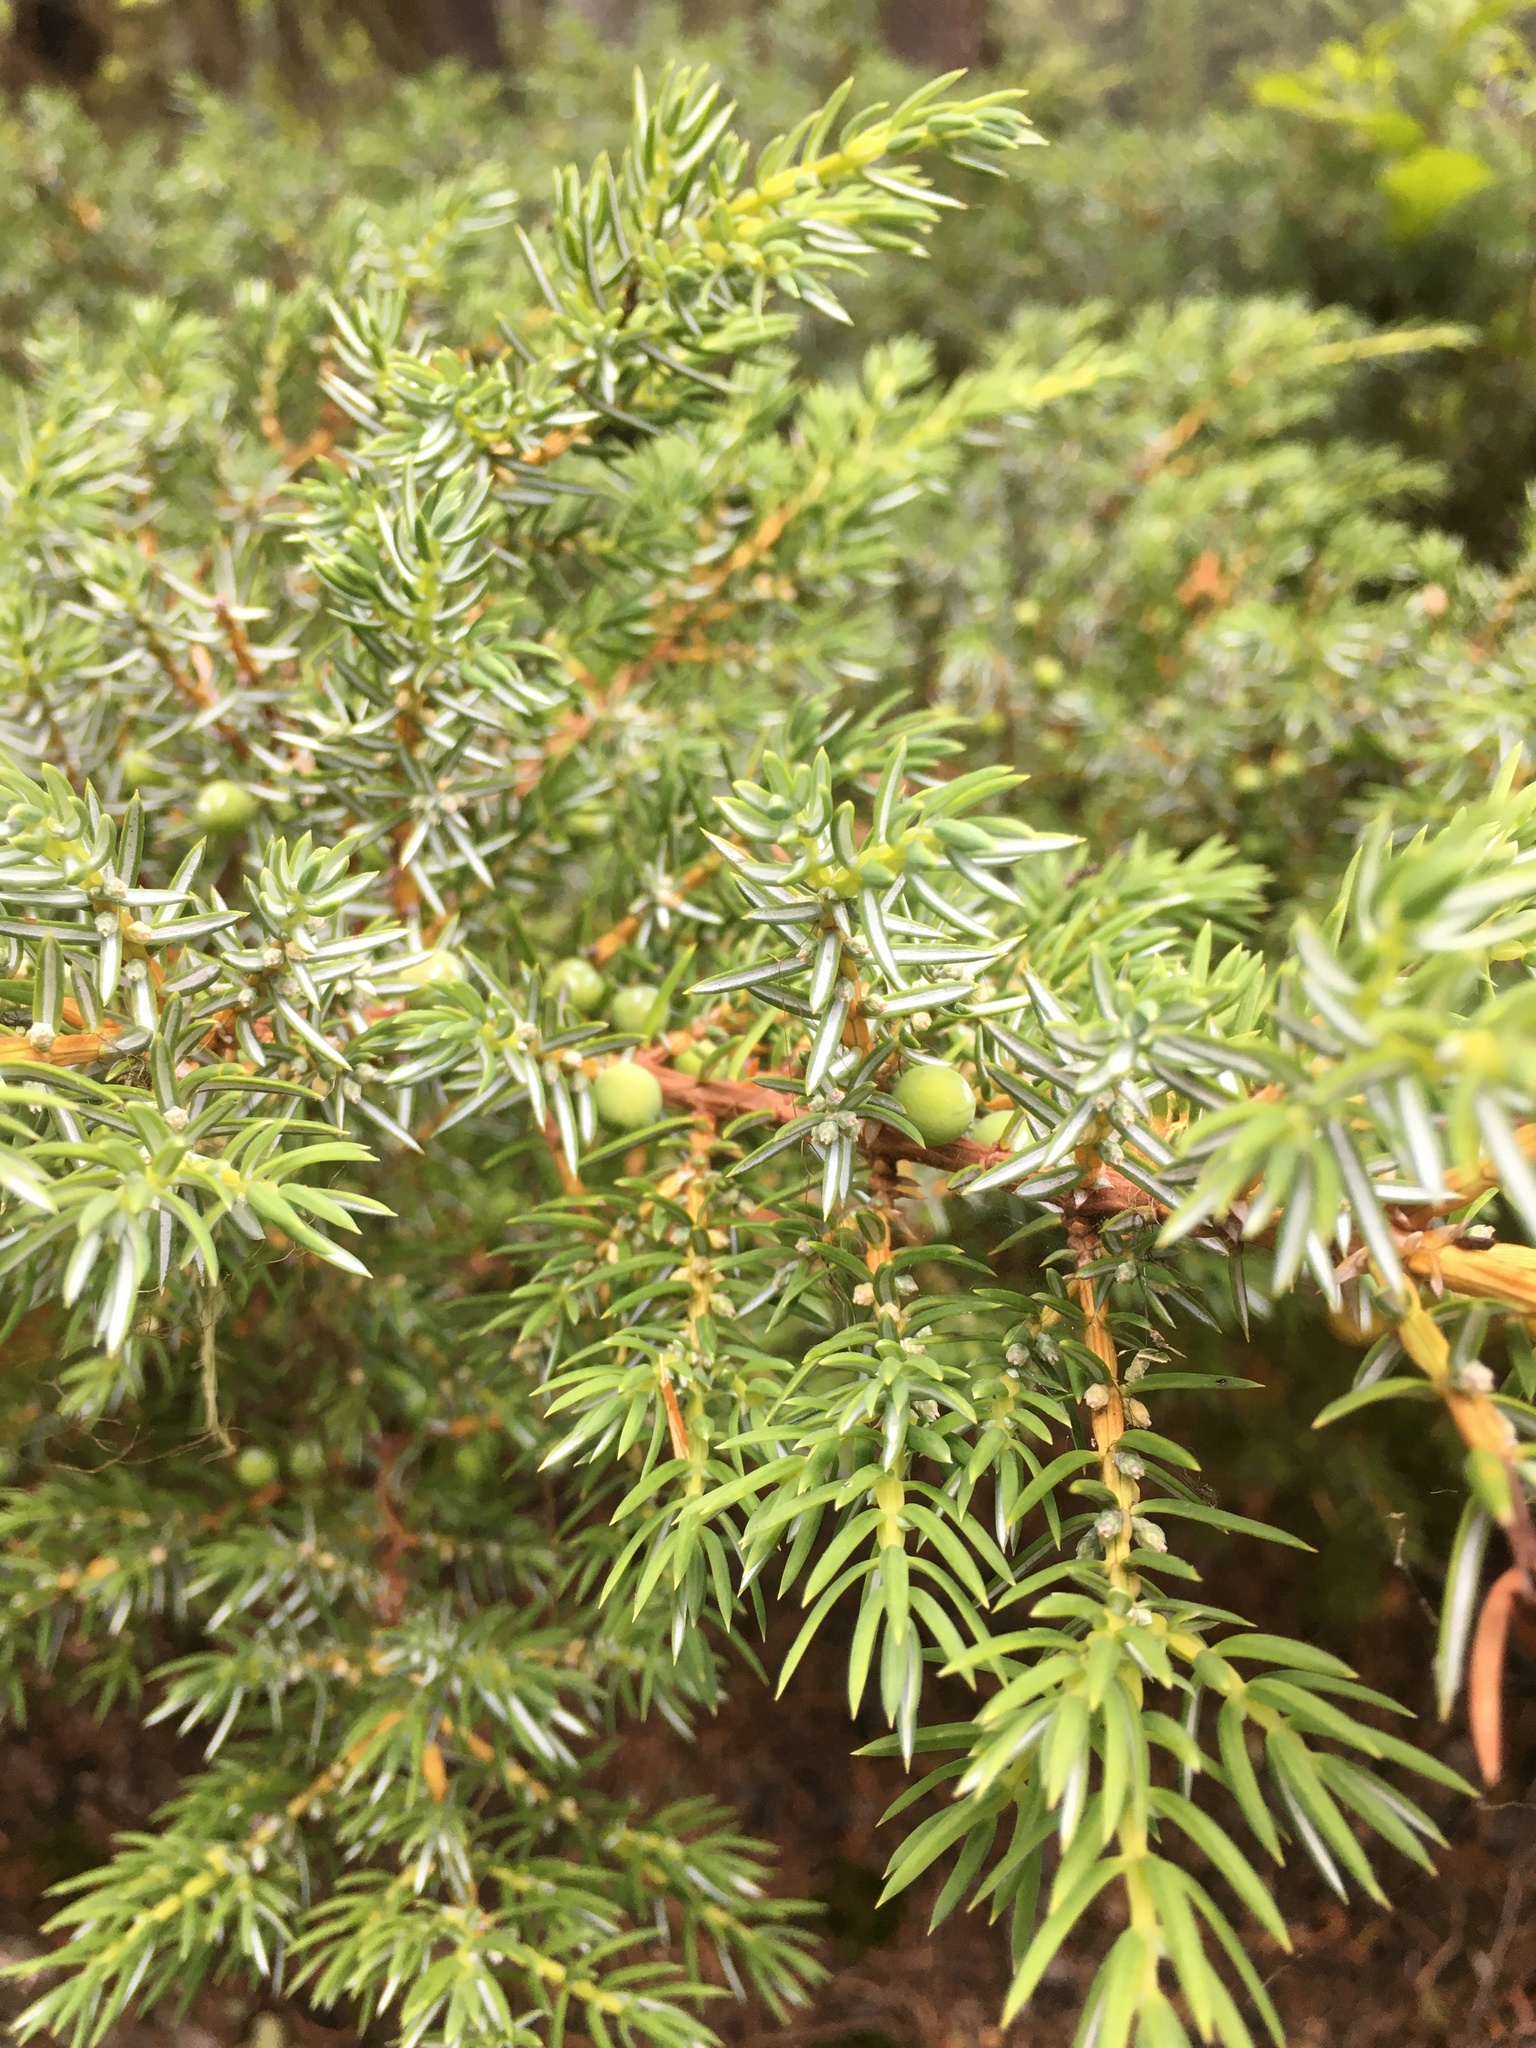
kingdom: Plantae
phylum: Tracheophyta
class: Pinopsida
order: Pinales
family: Cupressaceae
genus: Juniperus
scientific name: Juniperus communis
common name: Common juniper
